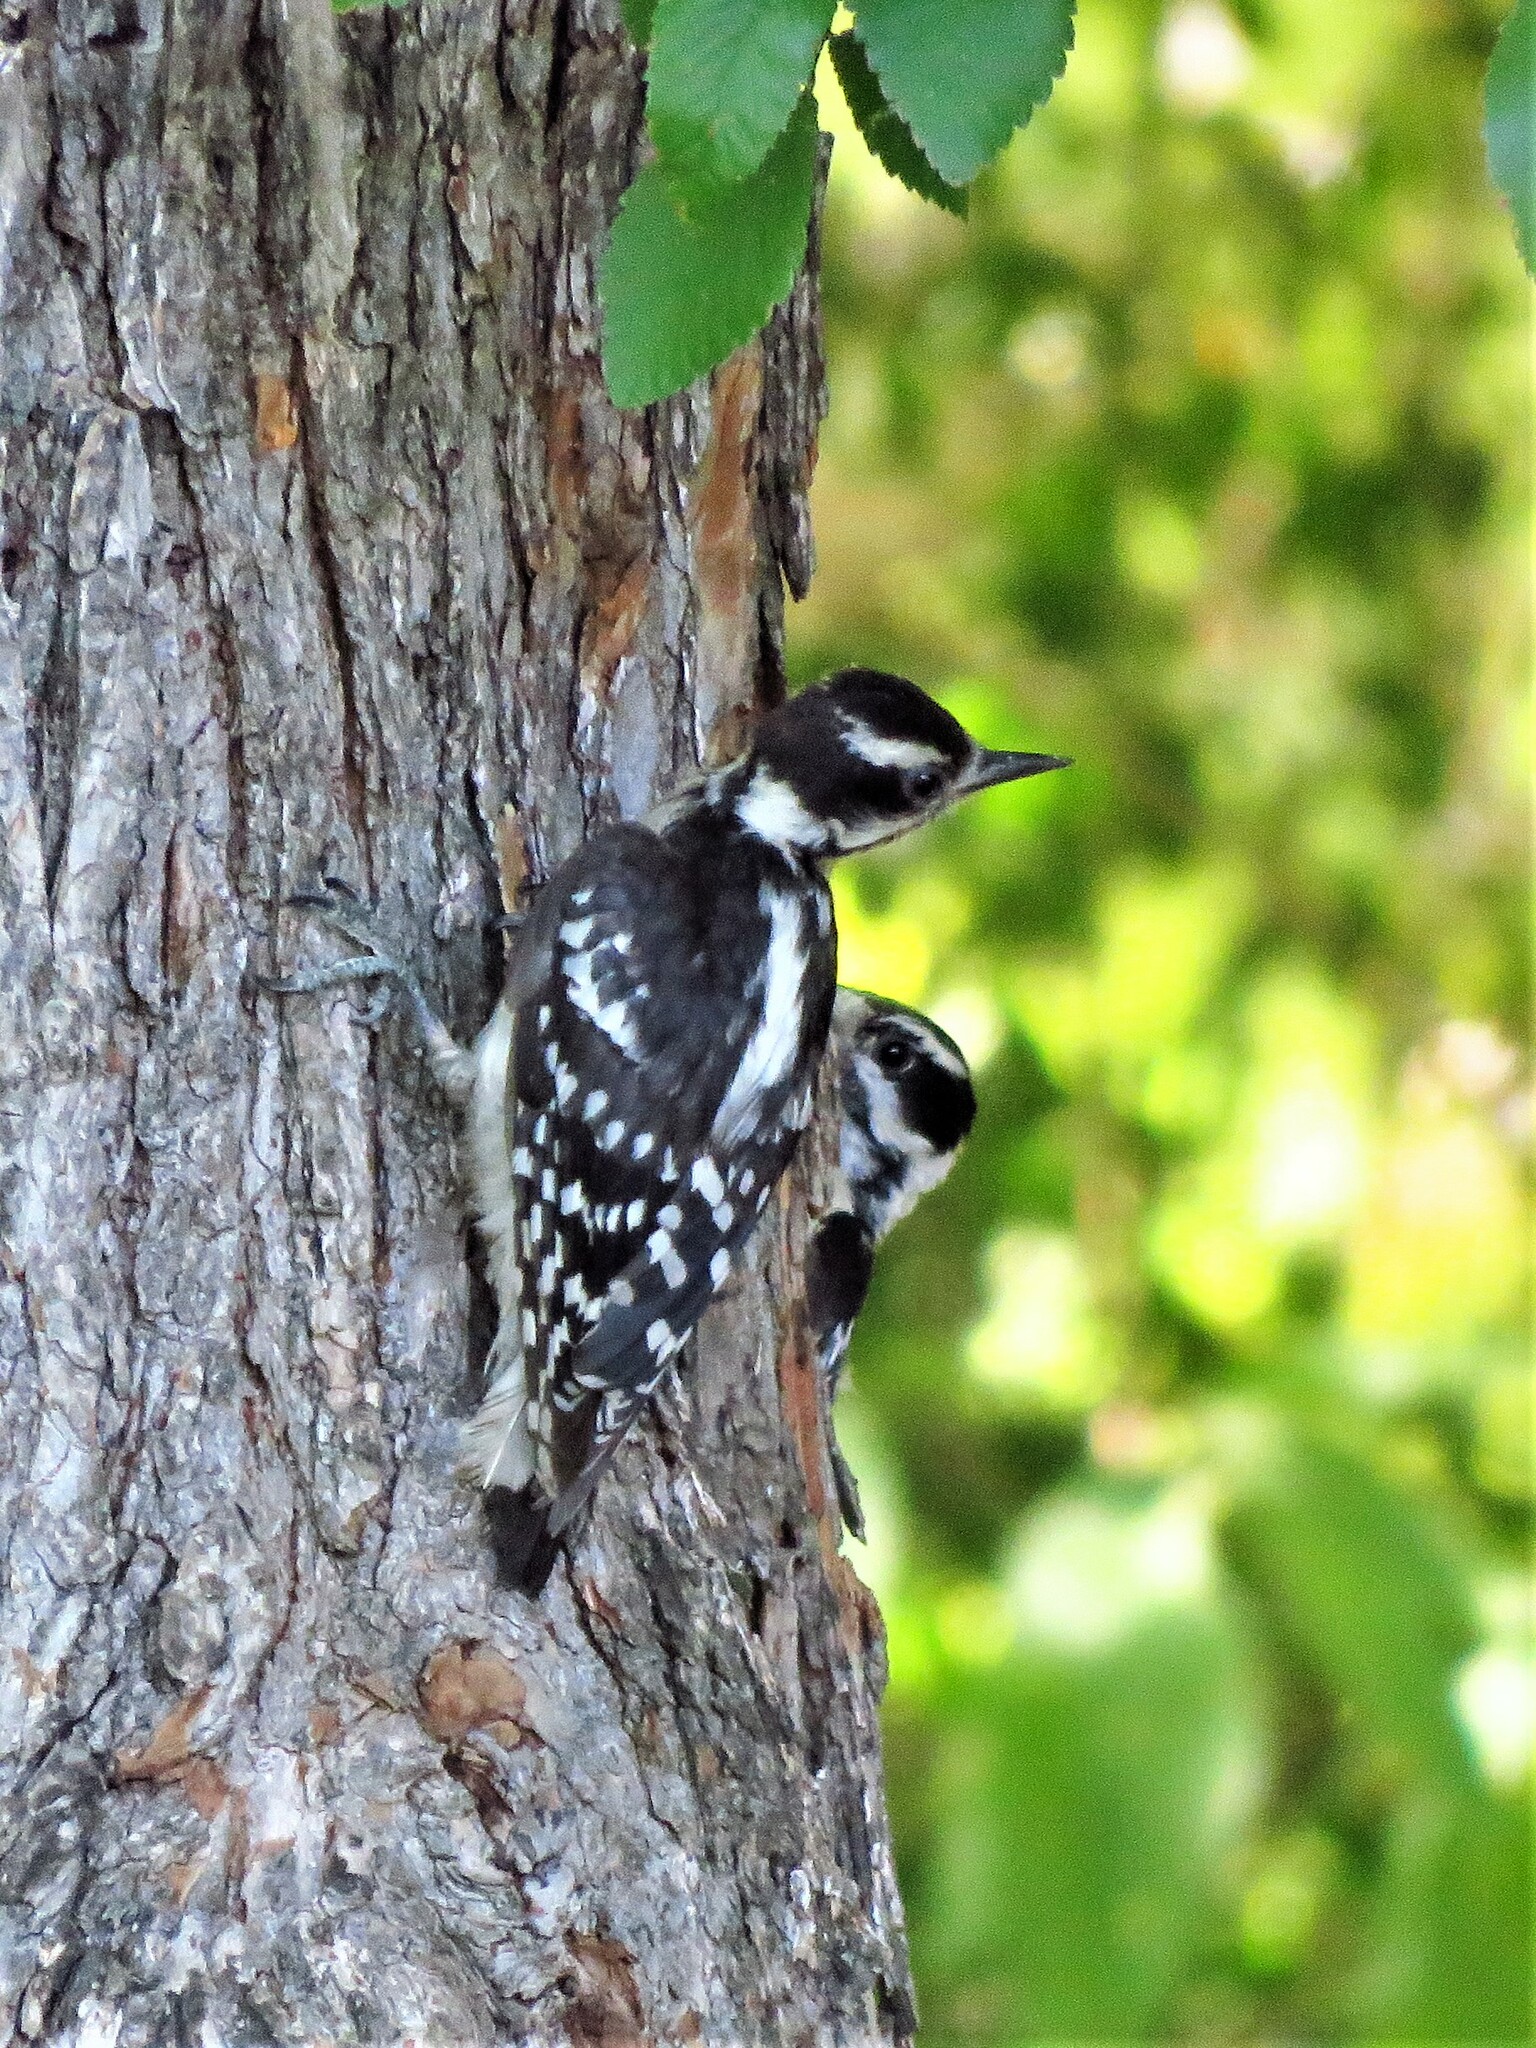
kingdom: Animalia
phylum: Chordata
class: Aves
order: Piciformes
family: Picidae
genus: Dryobates
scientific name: Dryobates pubescens
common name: Downy woodpecker
